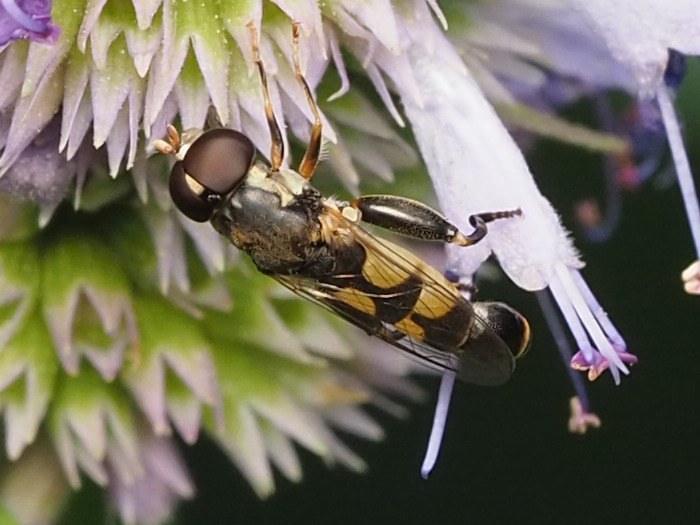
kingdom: Animalia
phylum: Arthropoda
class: Insecta
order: Diptera
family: Syrphidae
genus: Syritta
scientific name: Syritta pipiens
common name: Hover fly
